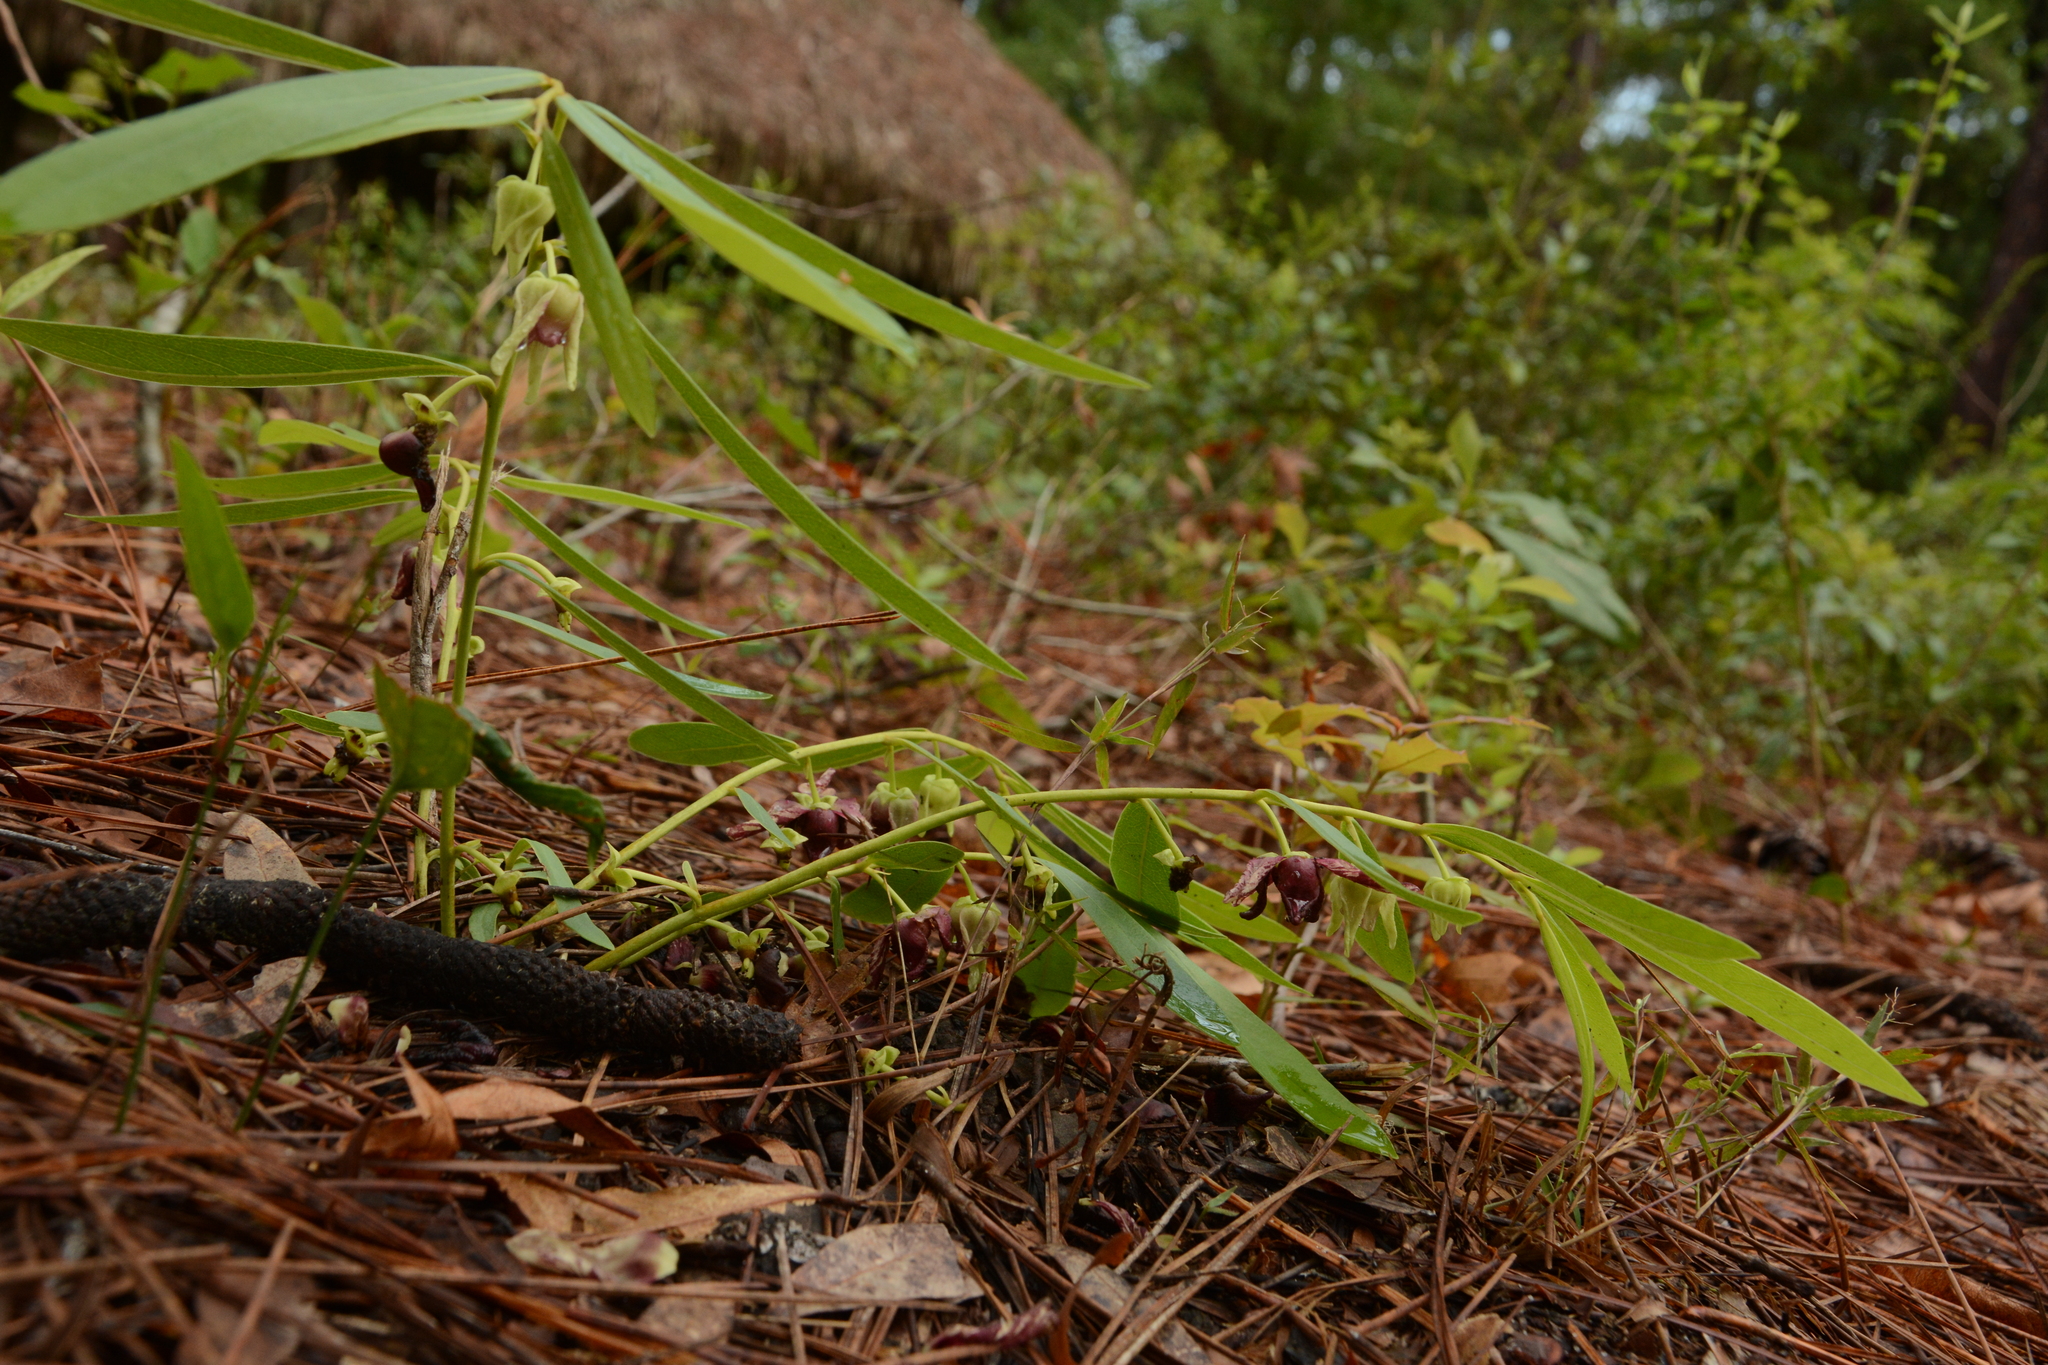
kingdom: Plantae
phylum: Tracheophyta
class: Magnoliopsida
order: Magnoliales
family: Annonaceae
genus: Asimina
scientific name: Asimina pygmaea
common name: Dwarf pawpaw
